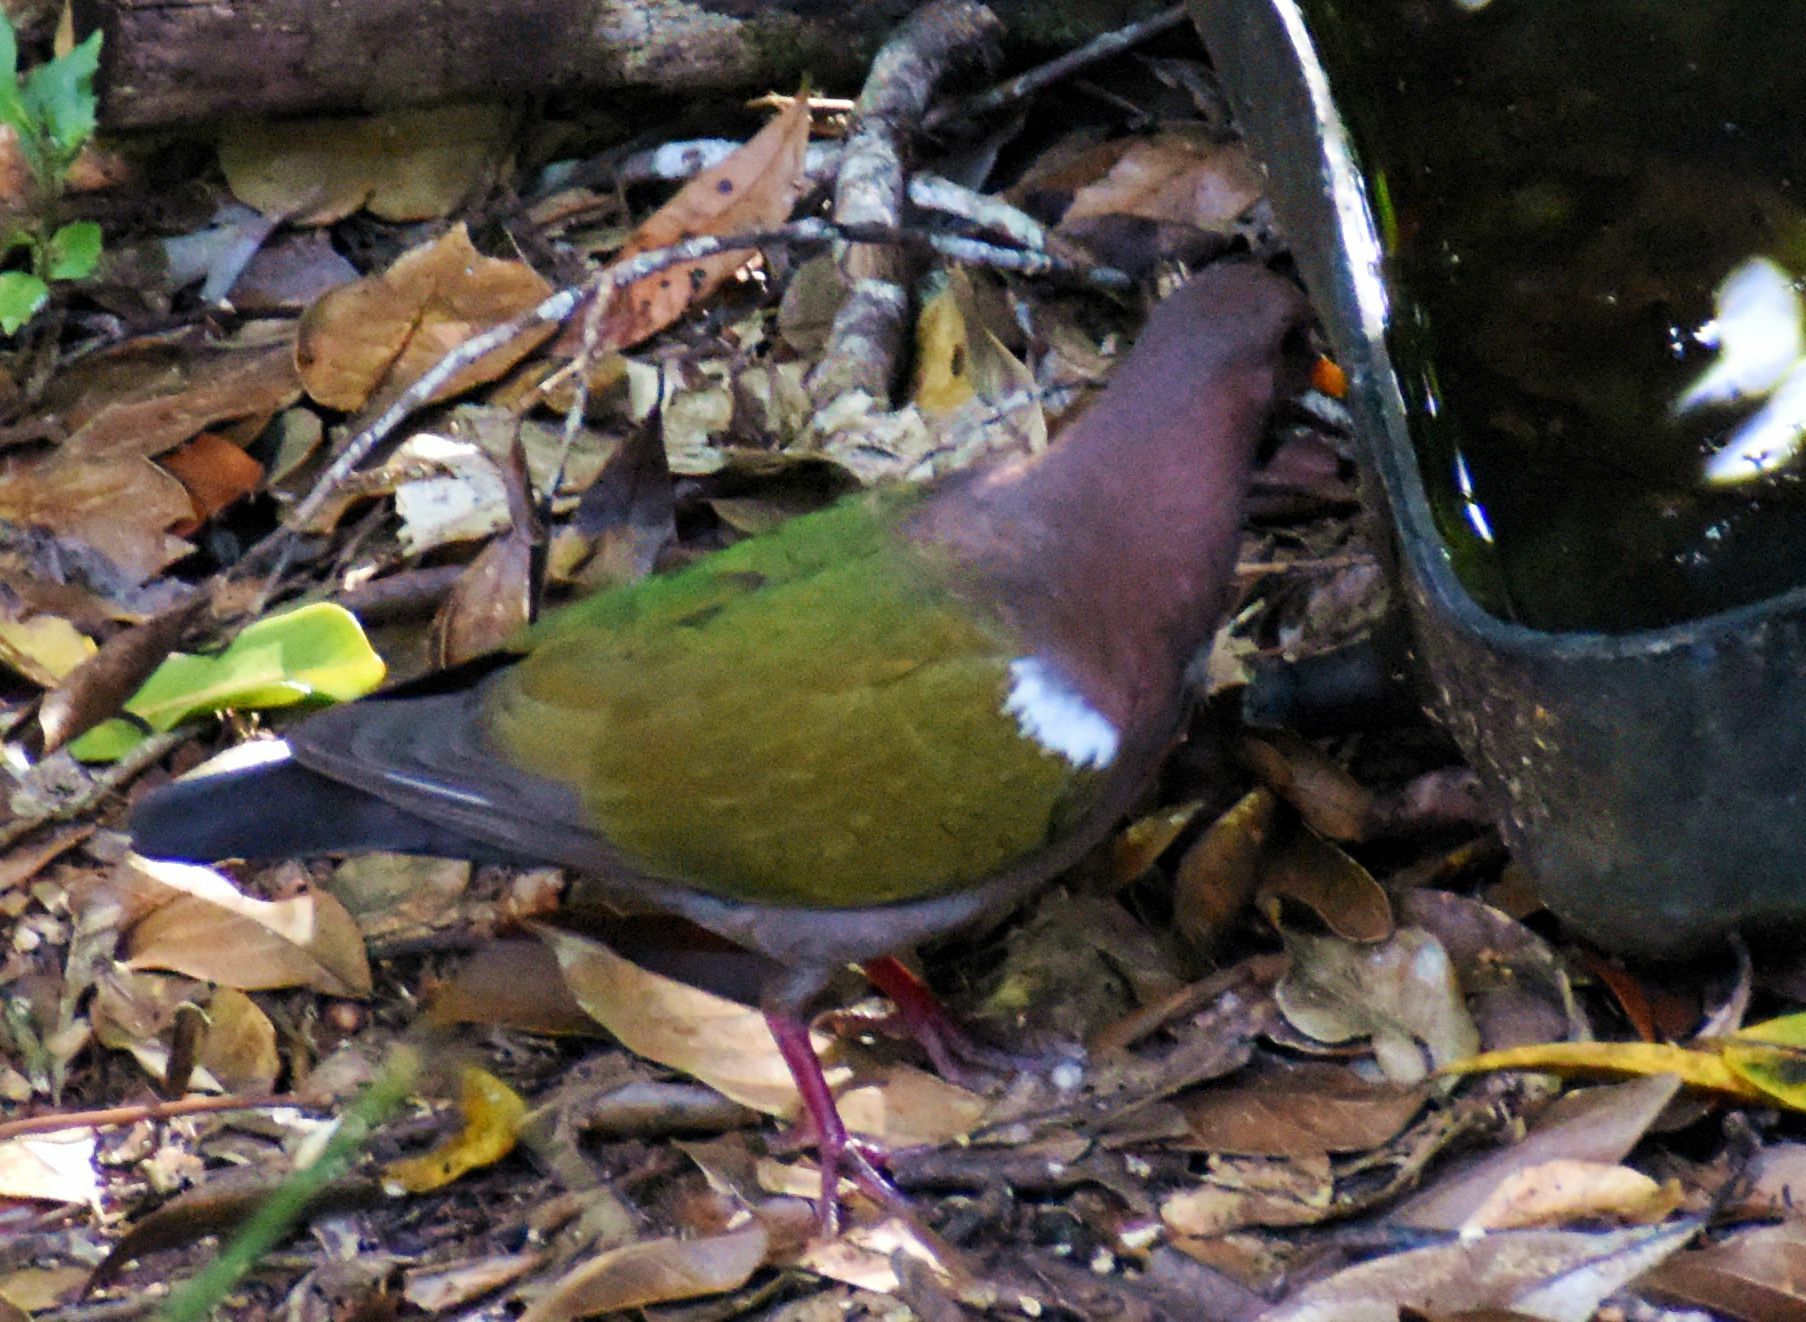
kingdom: Animalia
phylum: Chordata
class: Aves
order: Columbiformes
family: Columbidae
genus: Chalcophaps
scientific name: Chalcophaps longirostris
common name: Pacific emerald dove
